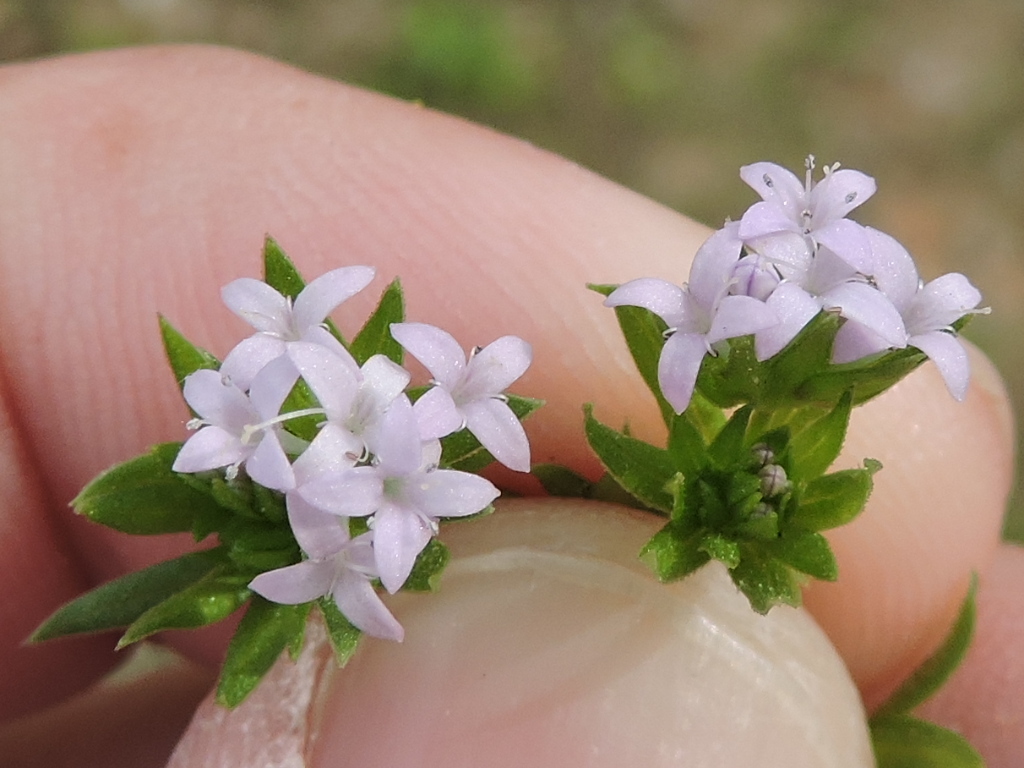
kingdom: Plantae
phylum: Tracheophyta
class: Magnoliopsida
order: Gentianales
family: Rubiaceae
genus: Sherardia
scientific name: Sherardia arvensis
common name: Field madder
